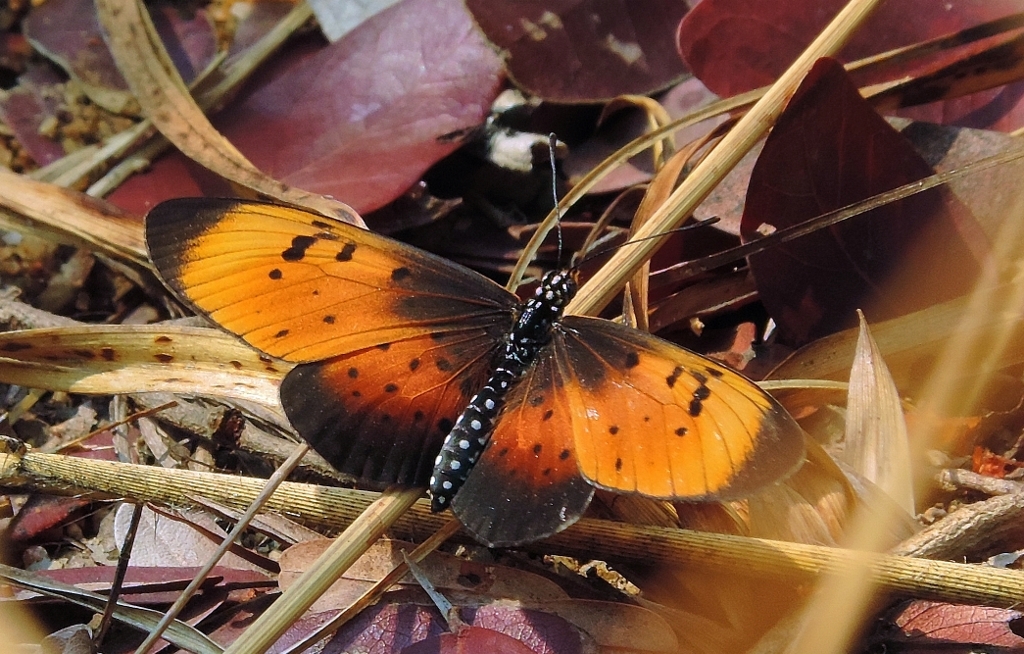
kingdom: Animalia
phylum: Arthropoda
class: Insecta
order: Lepidoptera
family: Nymphalidae
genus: Stephenia
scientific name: Stephenia
